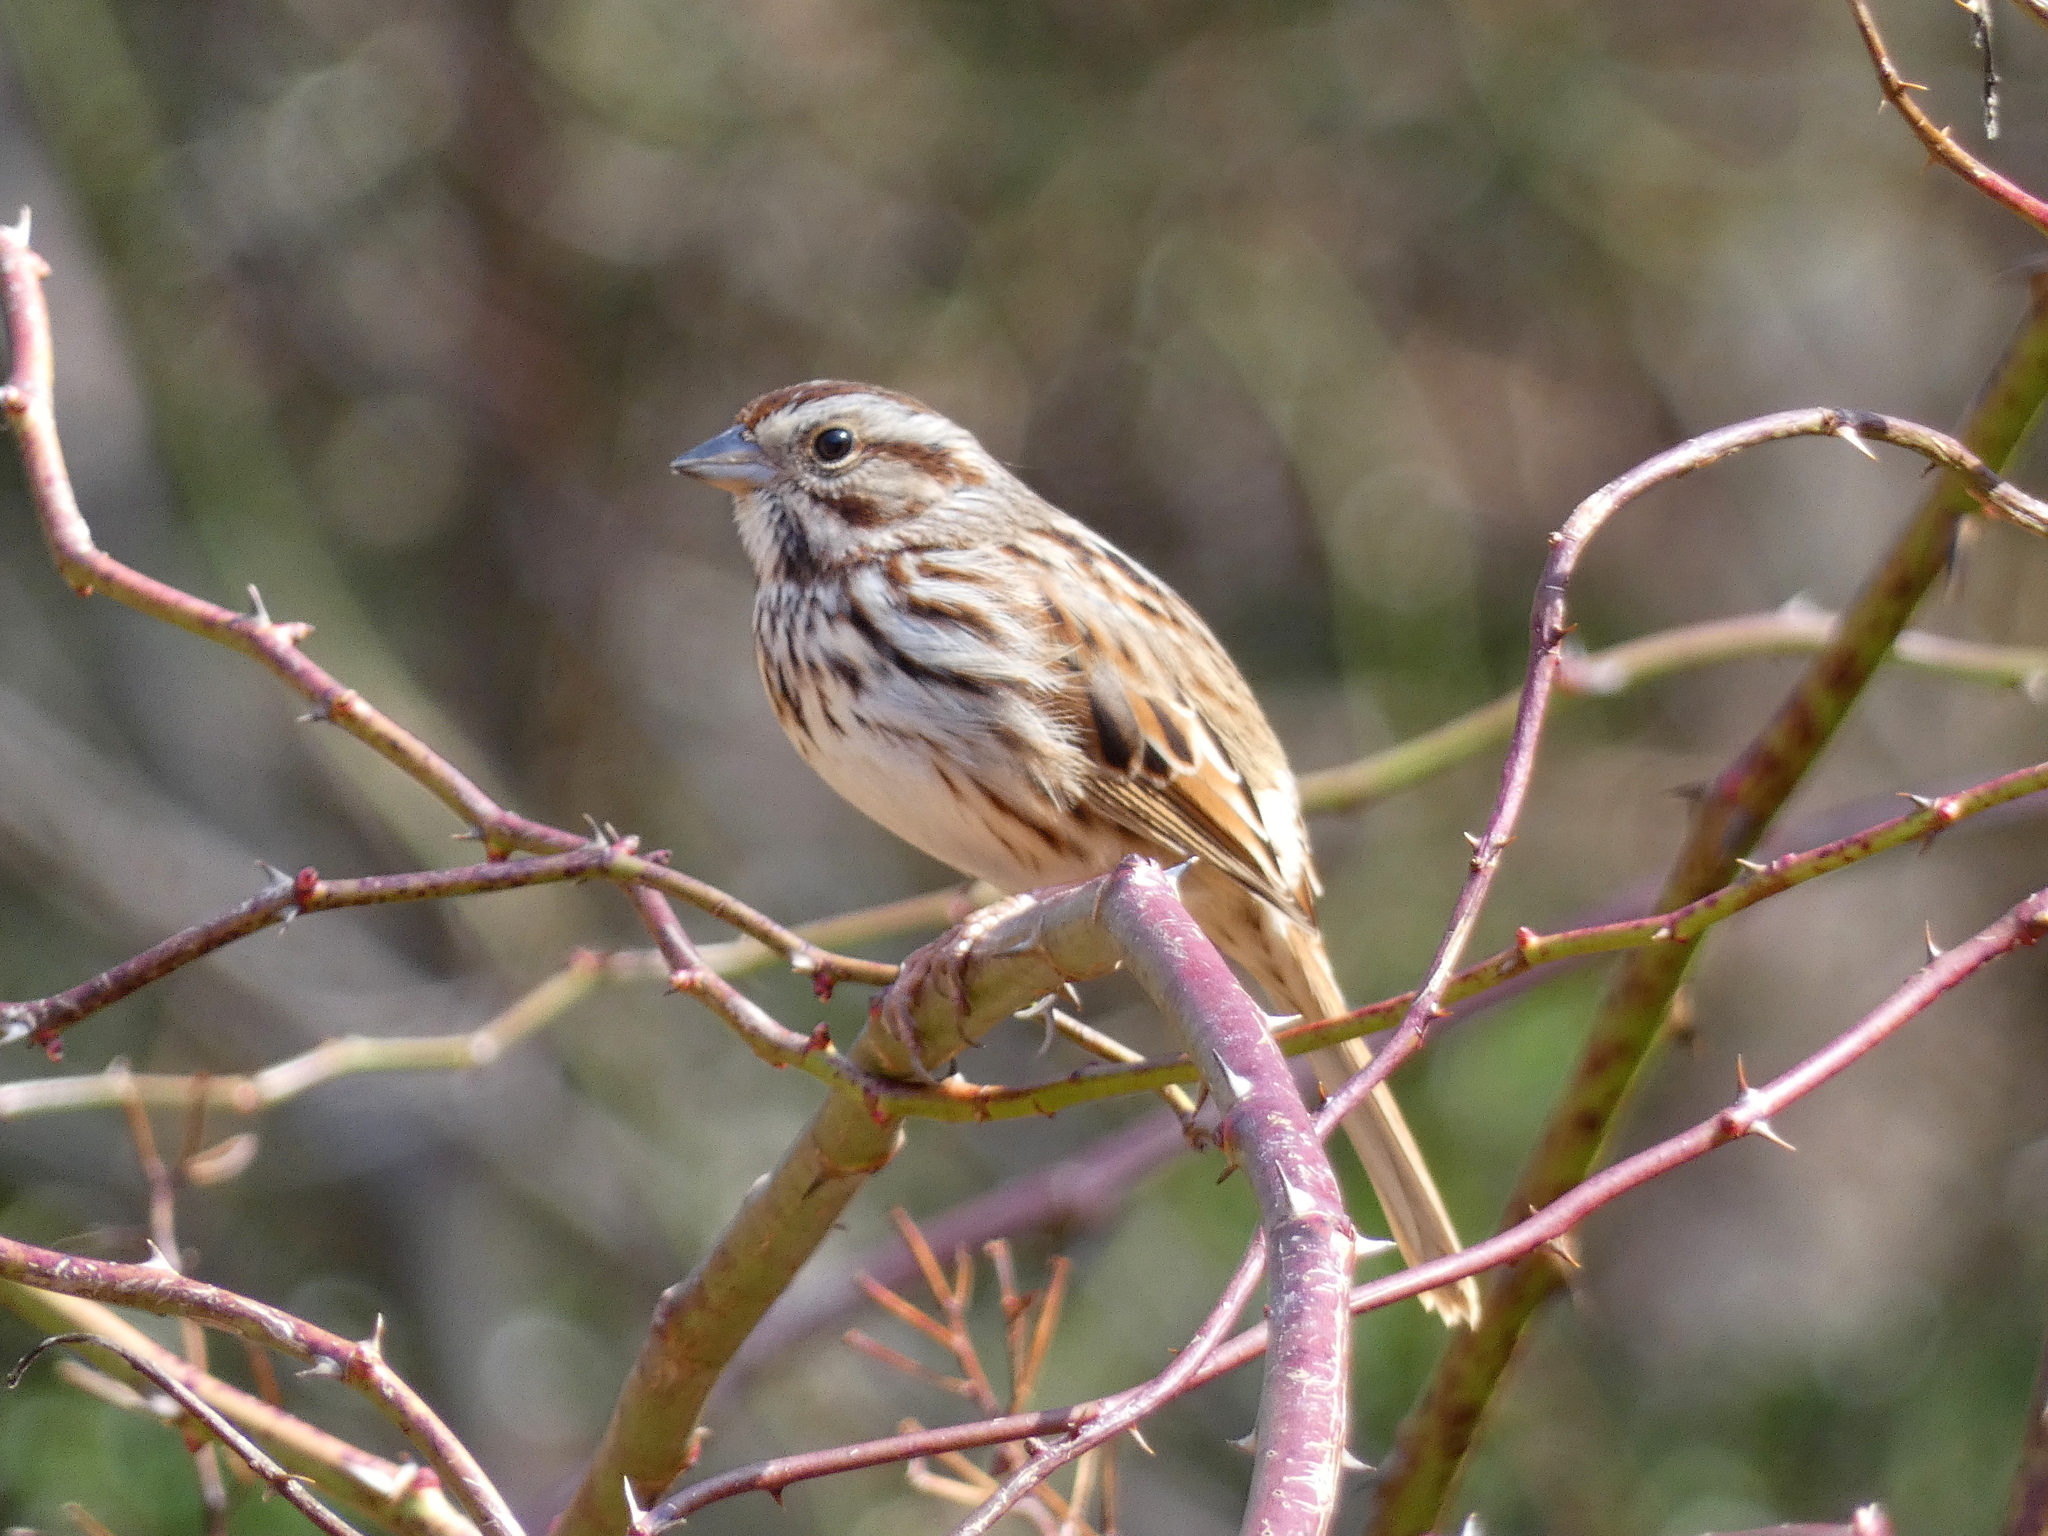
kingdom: Animalia
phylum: Chordata
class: Aves
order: Passeriformes
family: Passerellidae
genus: Melospiza
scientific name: Melospiza melodia
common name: Song sparrow
